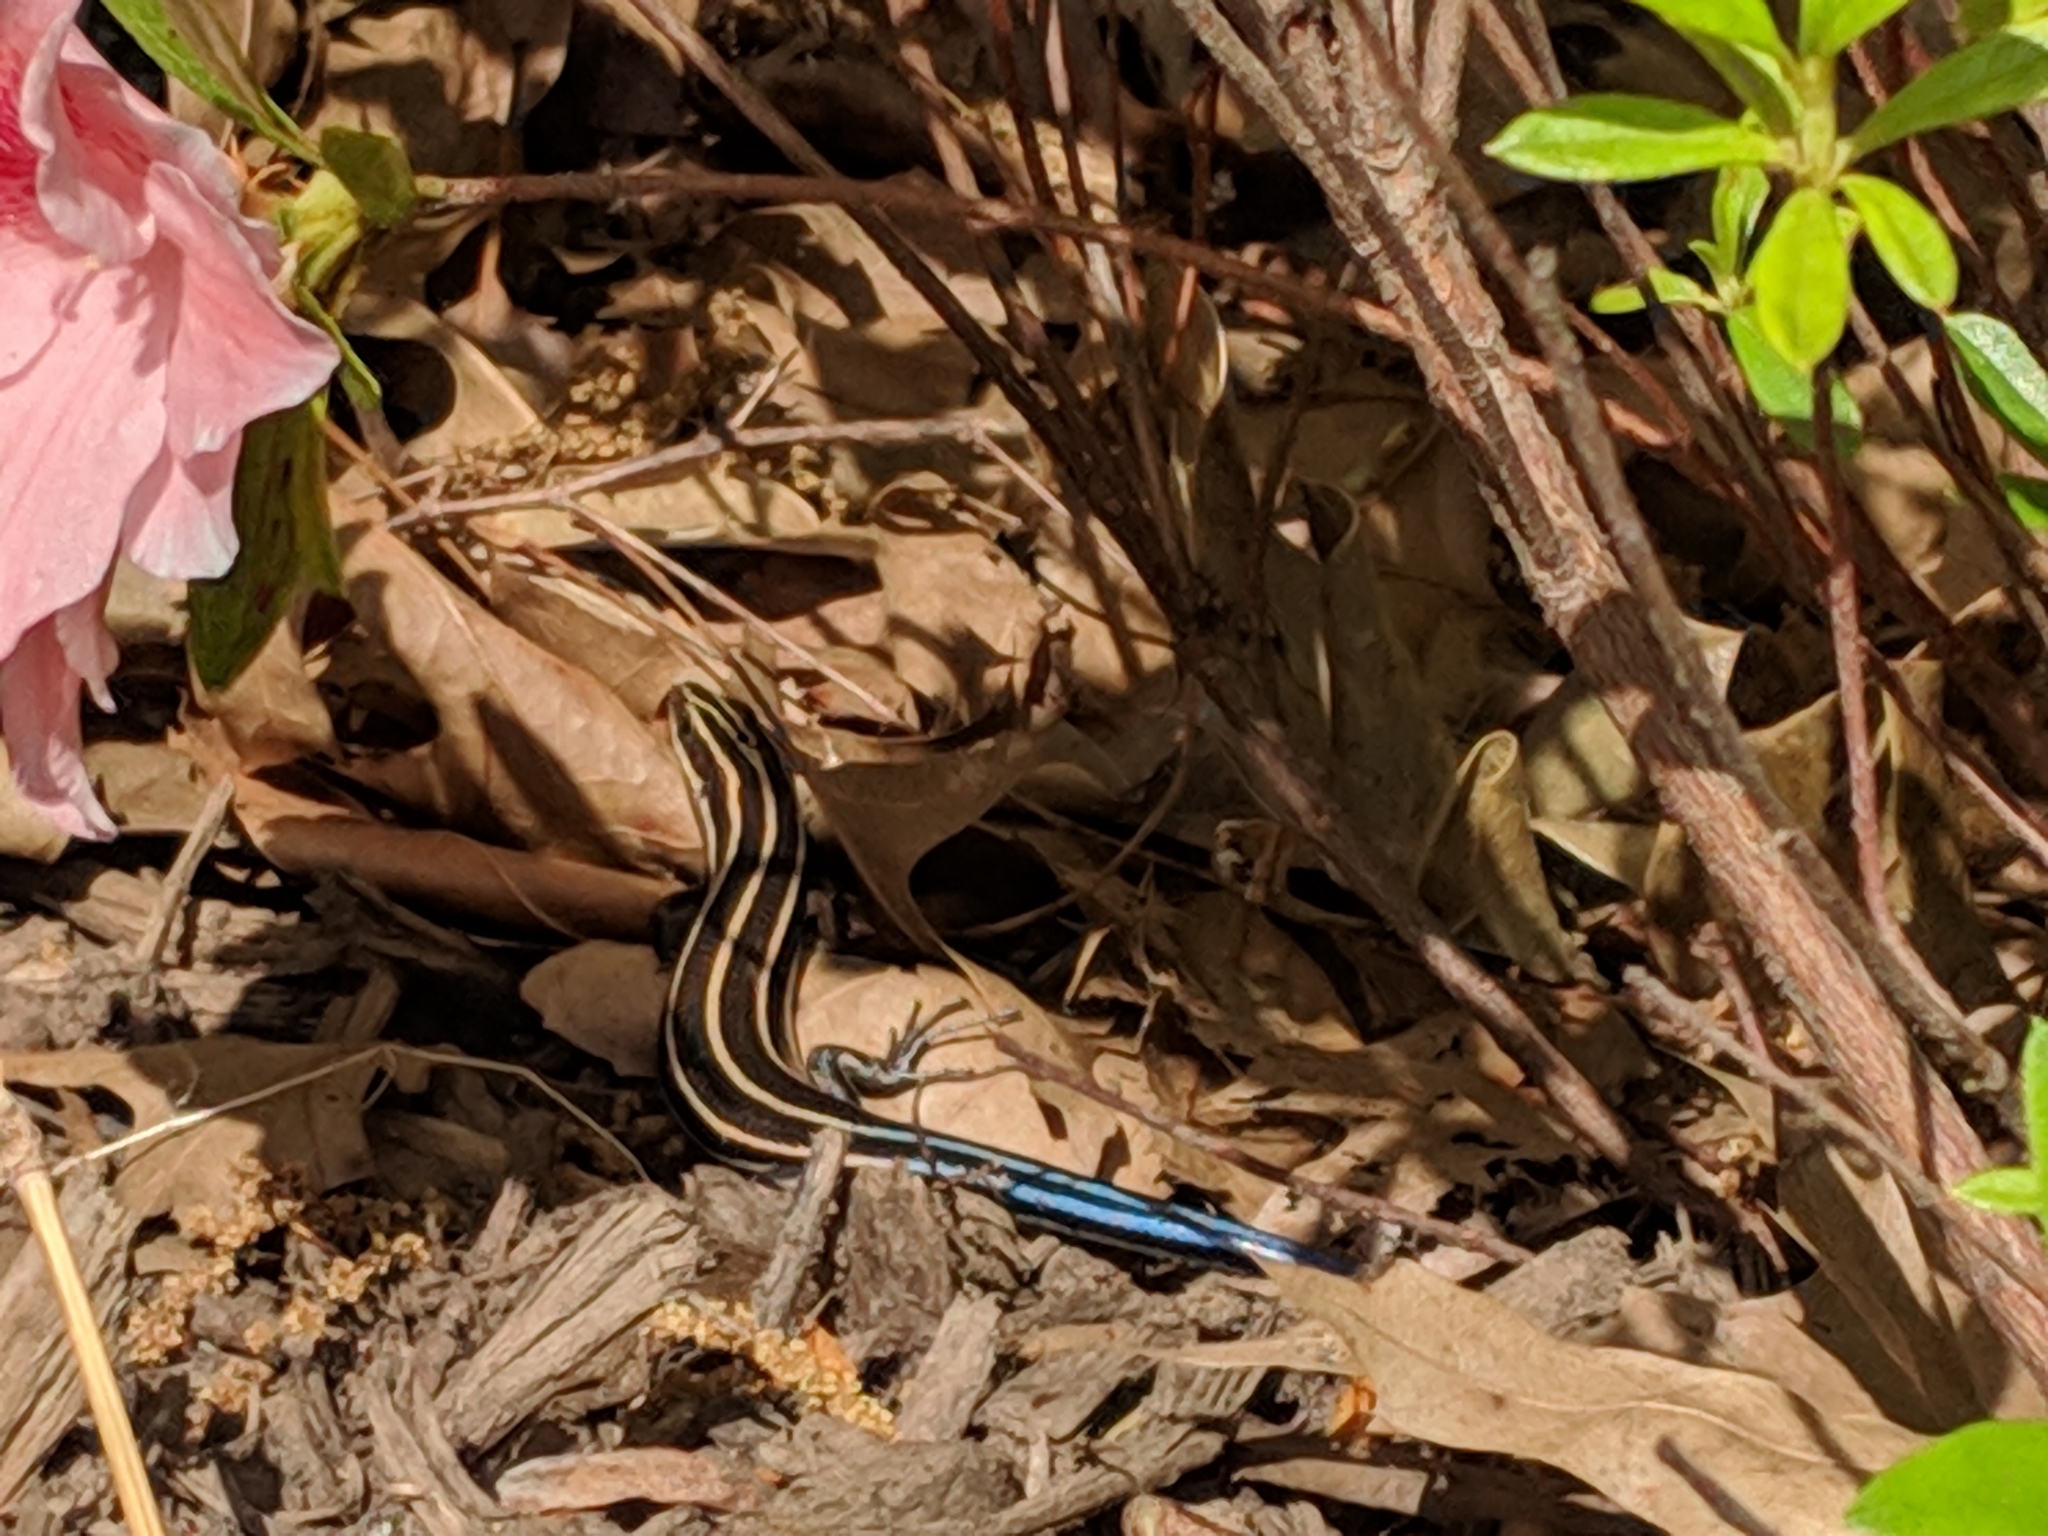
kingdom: Animalia
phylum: Chordata
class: Squamata
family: Scincidae
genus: Plestiodon
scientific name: Plestiodon fasciatus
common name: Five-lined skink
